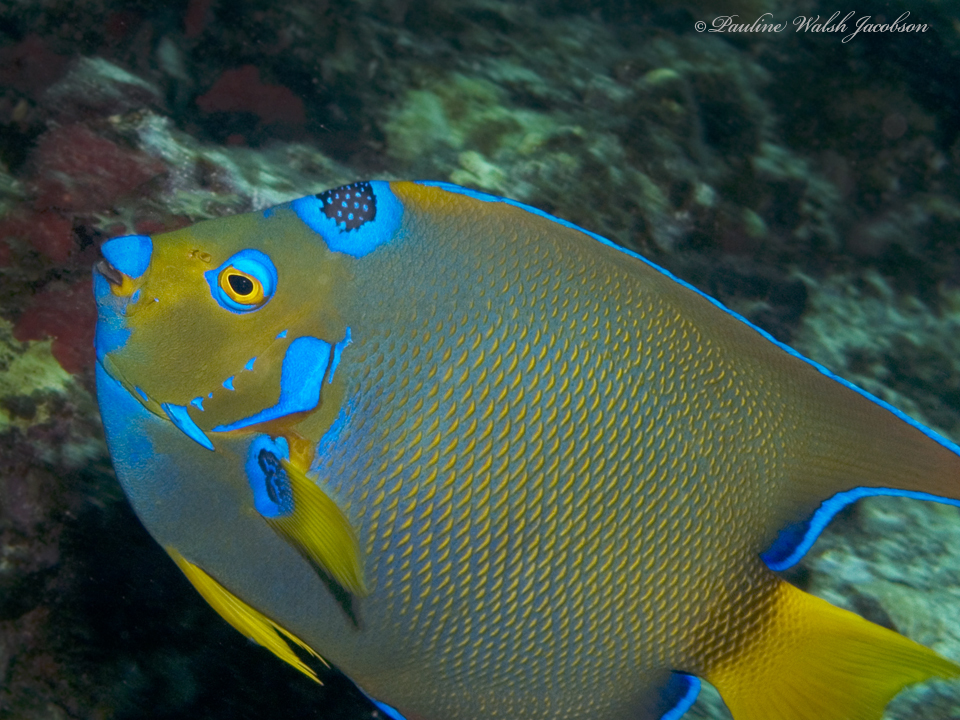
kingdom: Animalia
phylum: Chordata
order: Perciformes
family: Pomacanthidae
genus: Holacanthus
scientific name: Holacanthus ciliaris
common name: Queen angelfish
